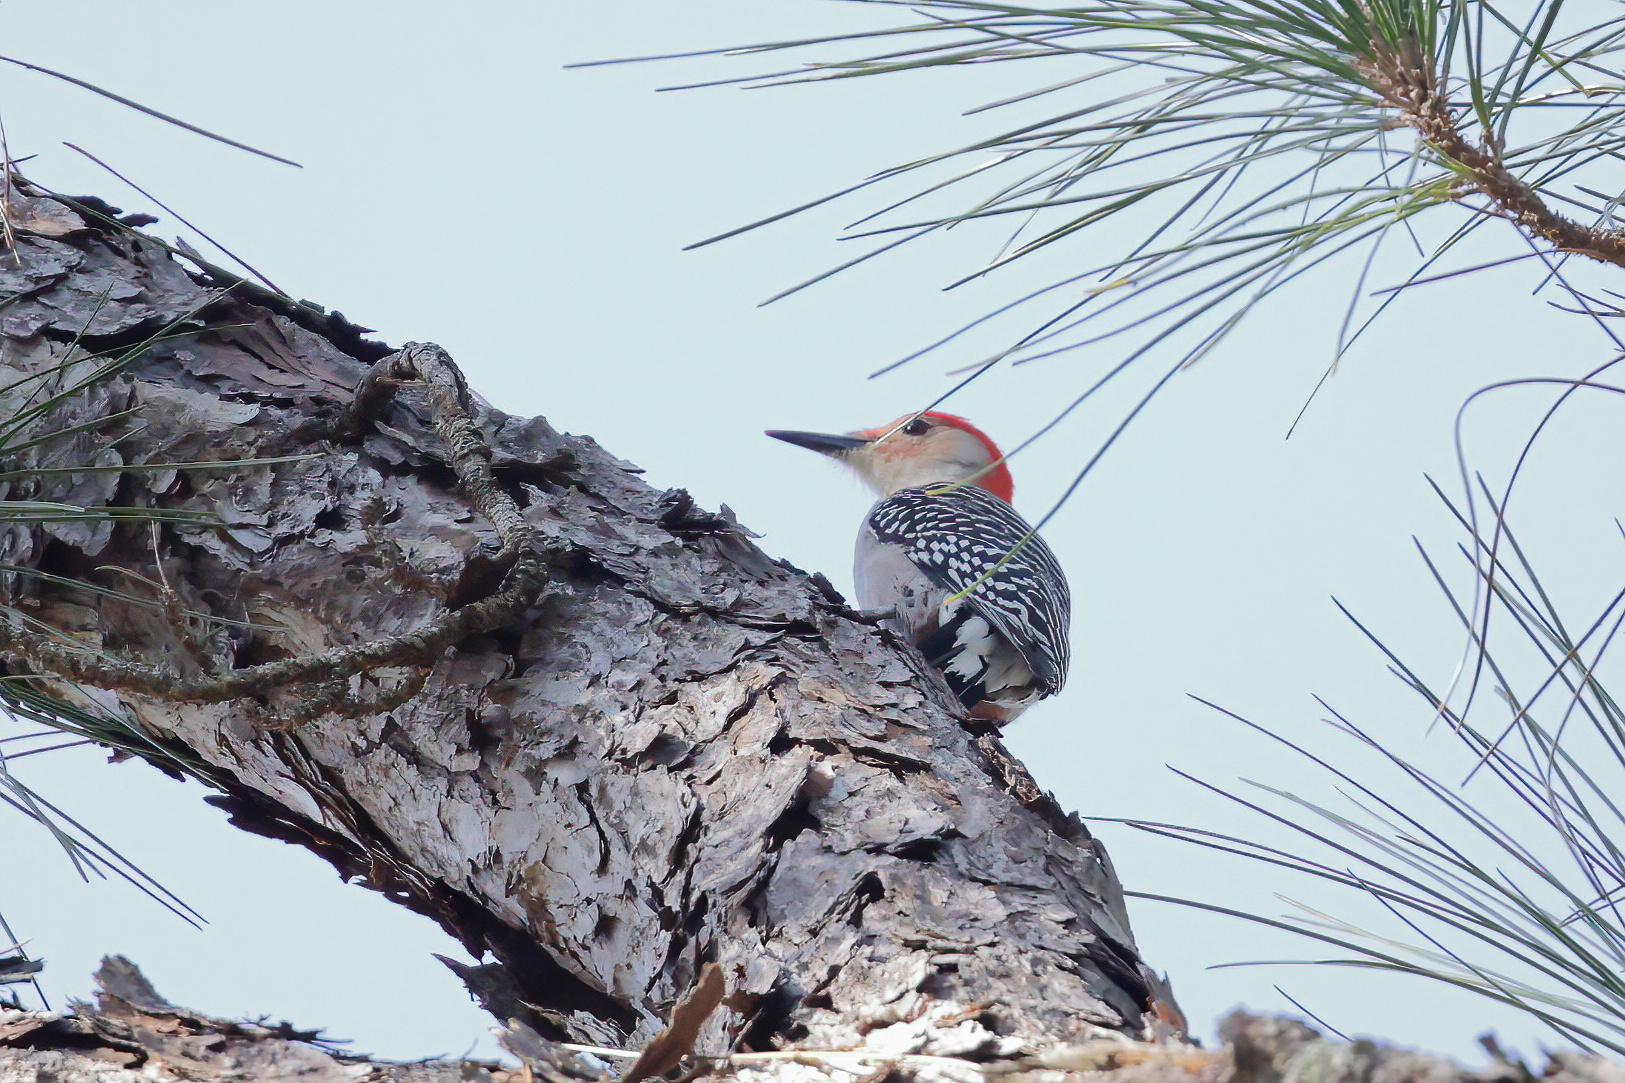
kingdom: Animalia
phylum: Chordata
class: Aves
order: Piciformes
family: Picidae
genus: Melanerpes
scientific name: Melanerpes carolinus
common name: Red-bellied woodpecker
